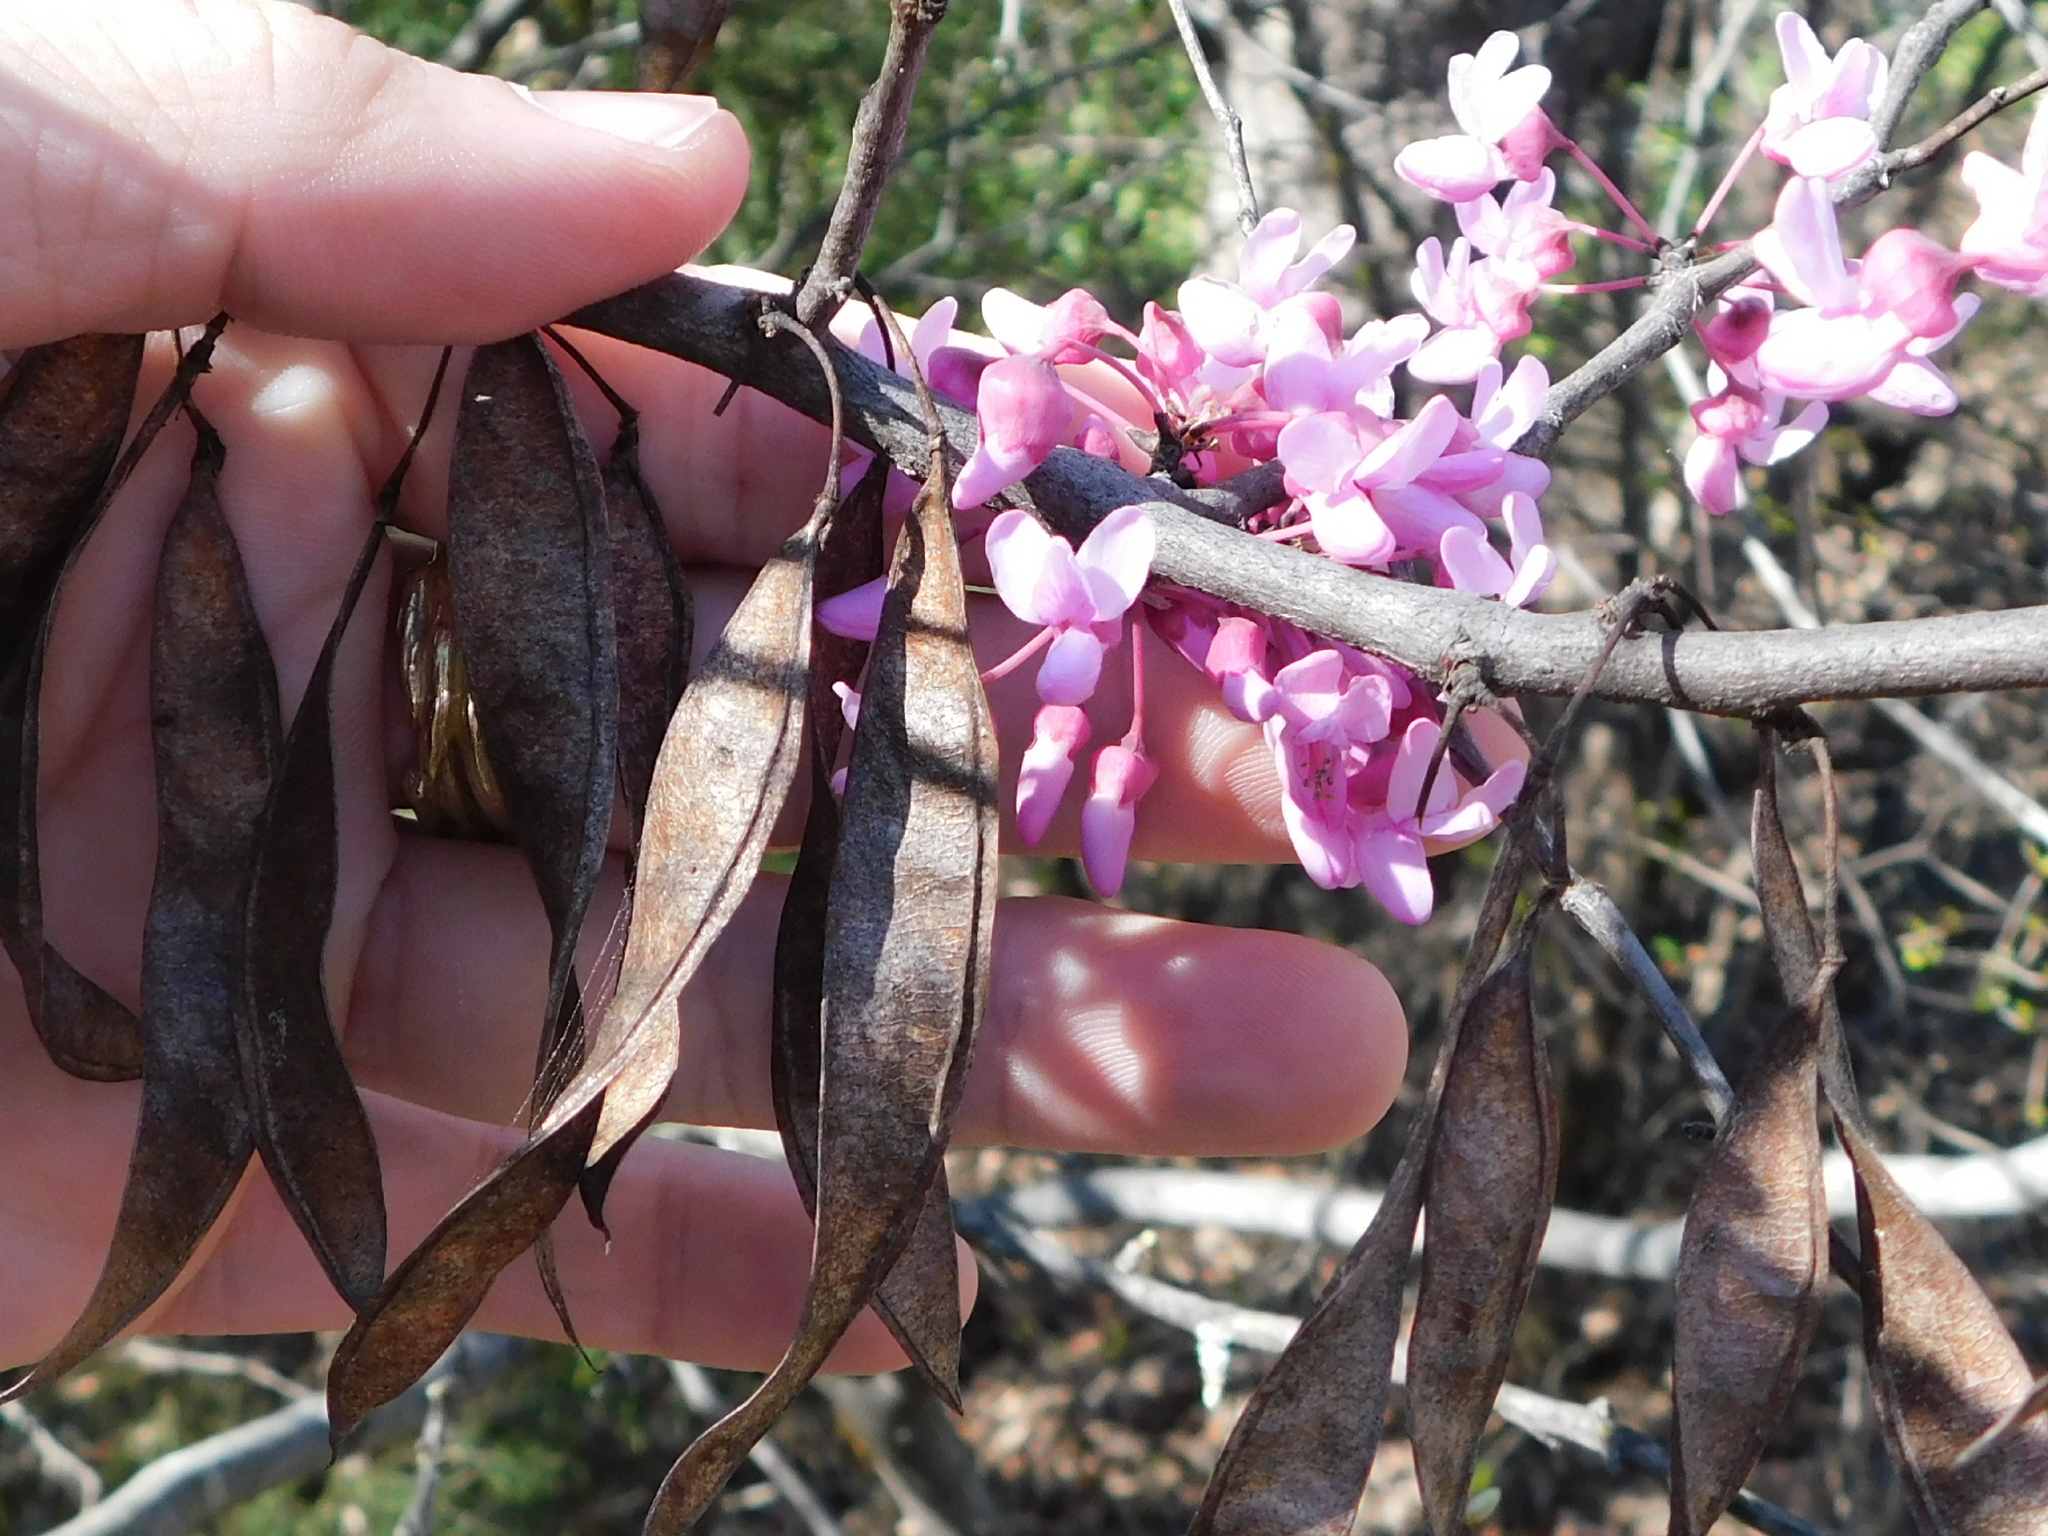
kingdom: Plantae
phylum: Tracheophyta
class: Magnoliopsida
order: Fabales
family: Fabaceae
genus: Cercis
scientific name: Cercis canadensis
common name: Eastern redbud
